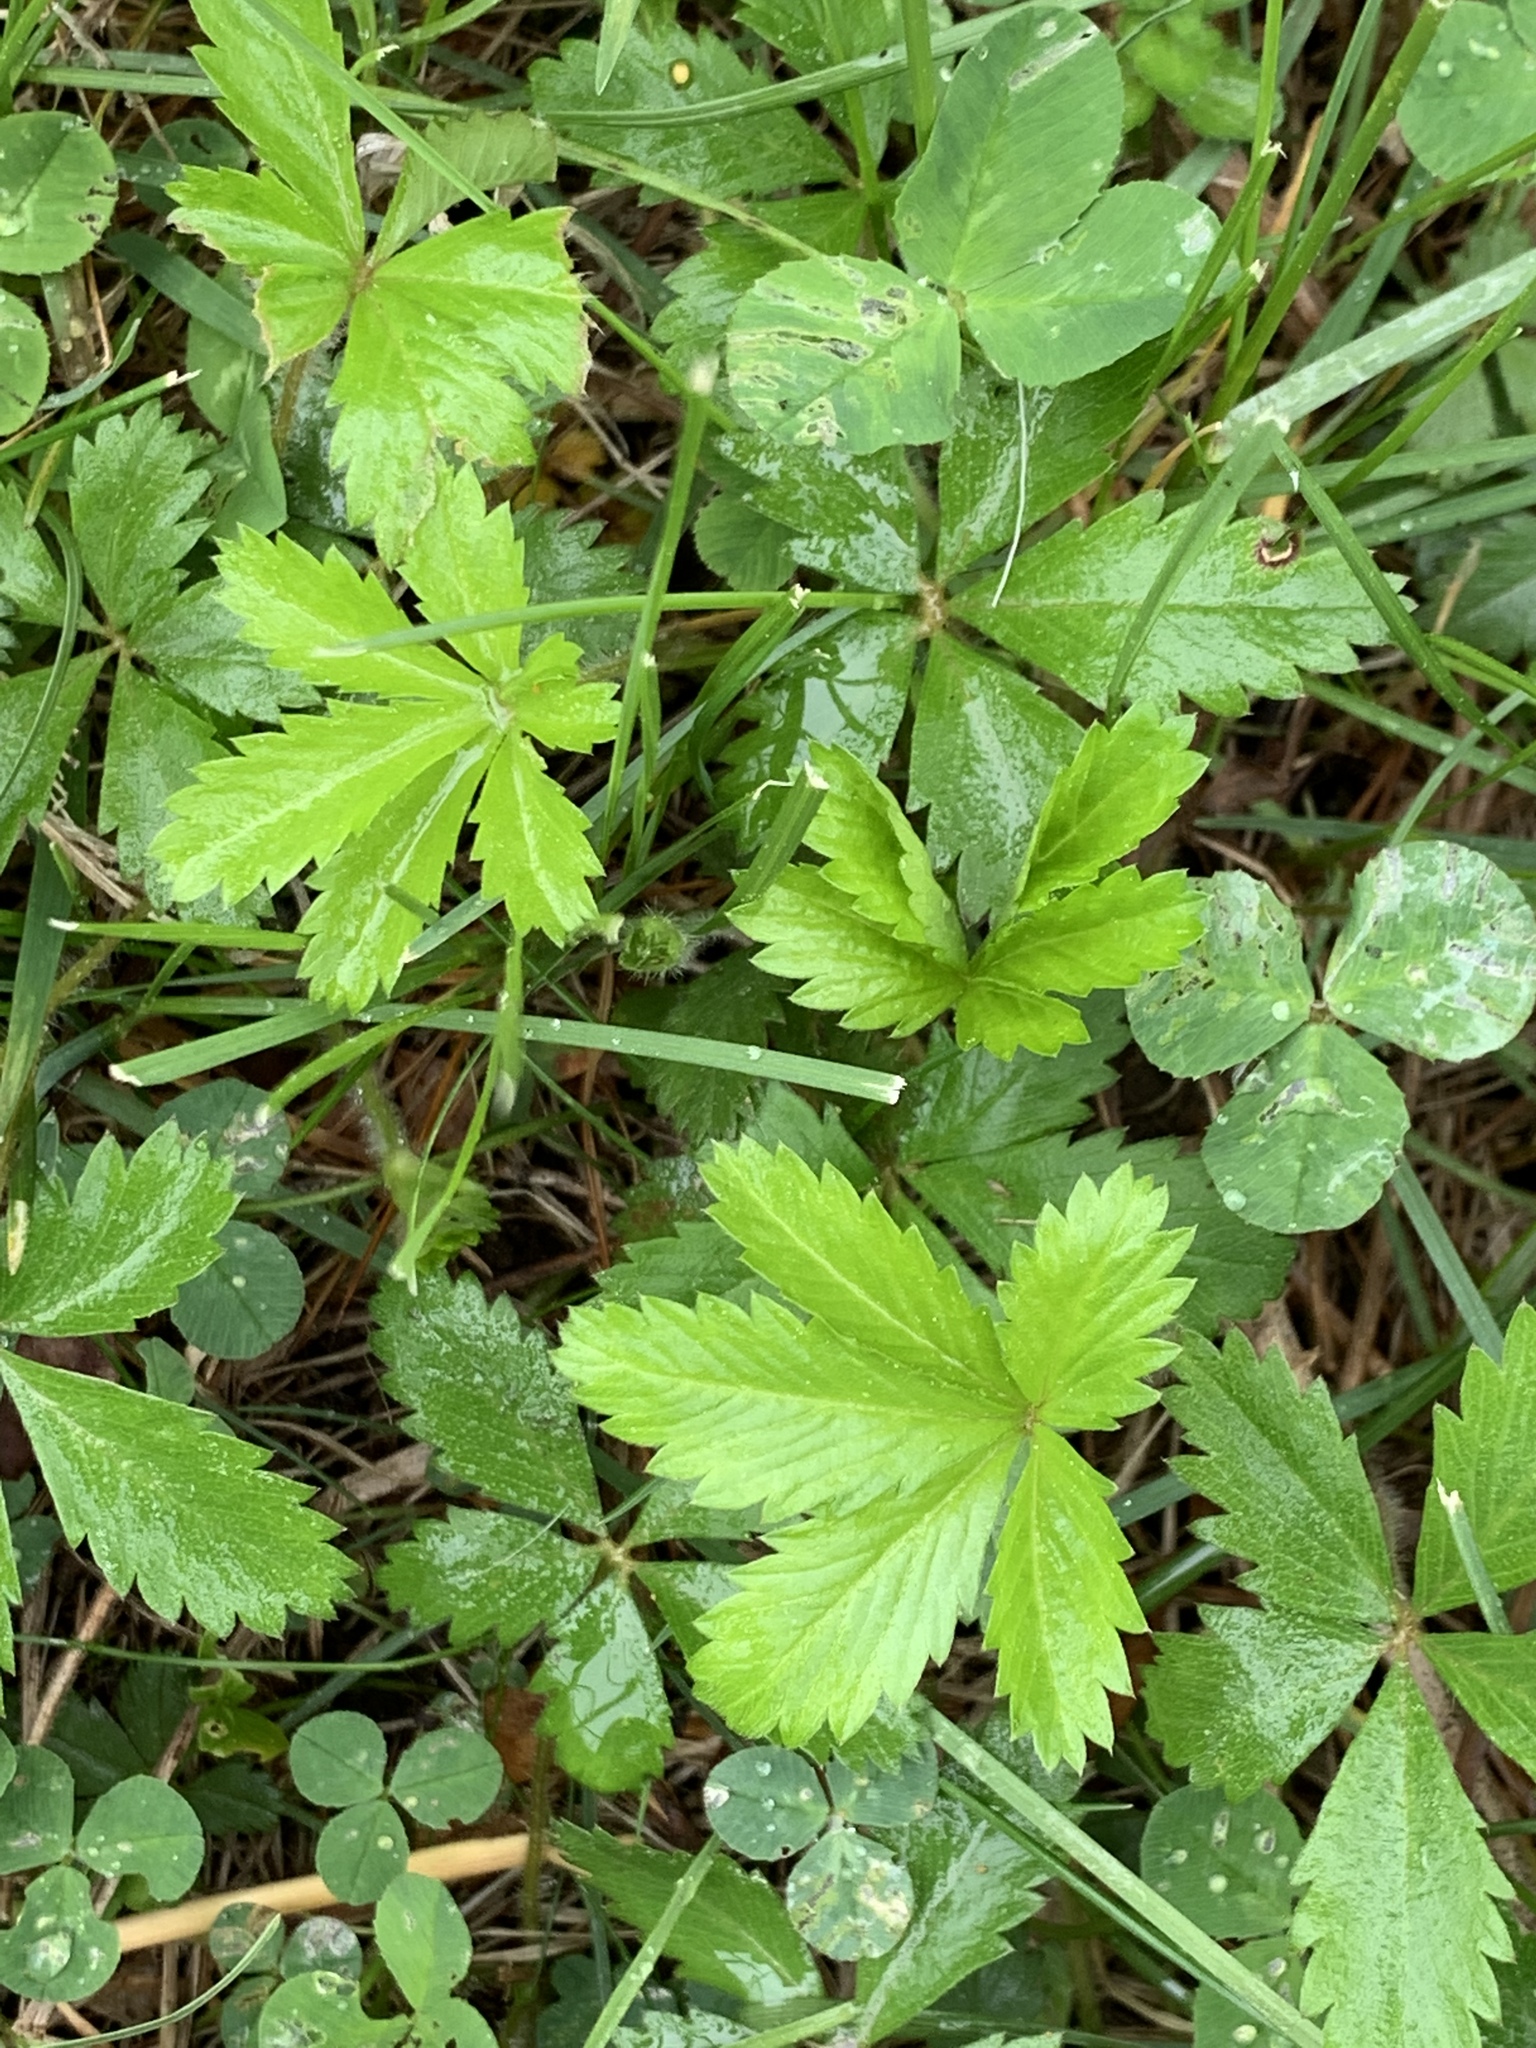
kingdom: Plantae
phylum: Tracheophyta
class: Magnoliopsida
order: Rosales
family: Rosaceae
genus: Potentilla
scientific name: Potentilla canadensis
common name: Canada cinquefoil
